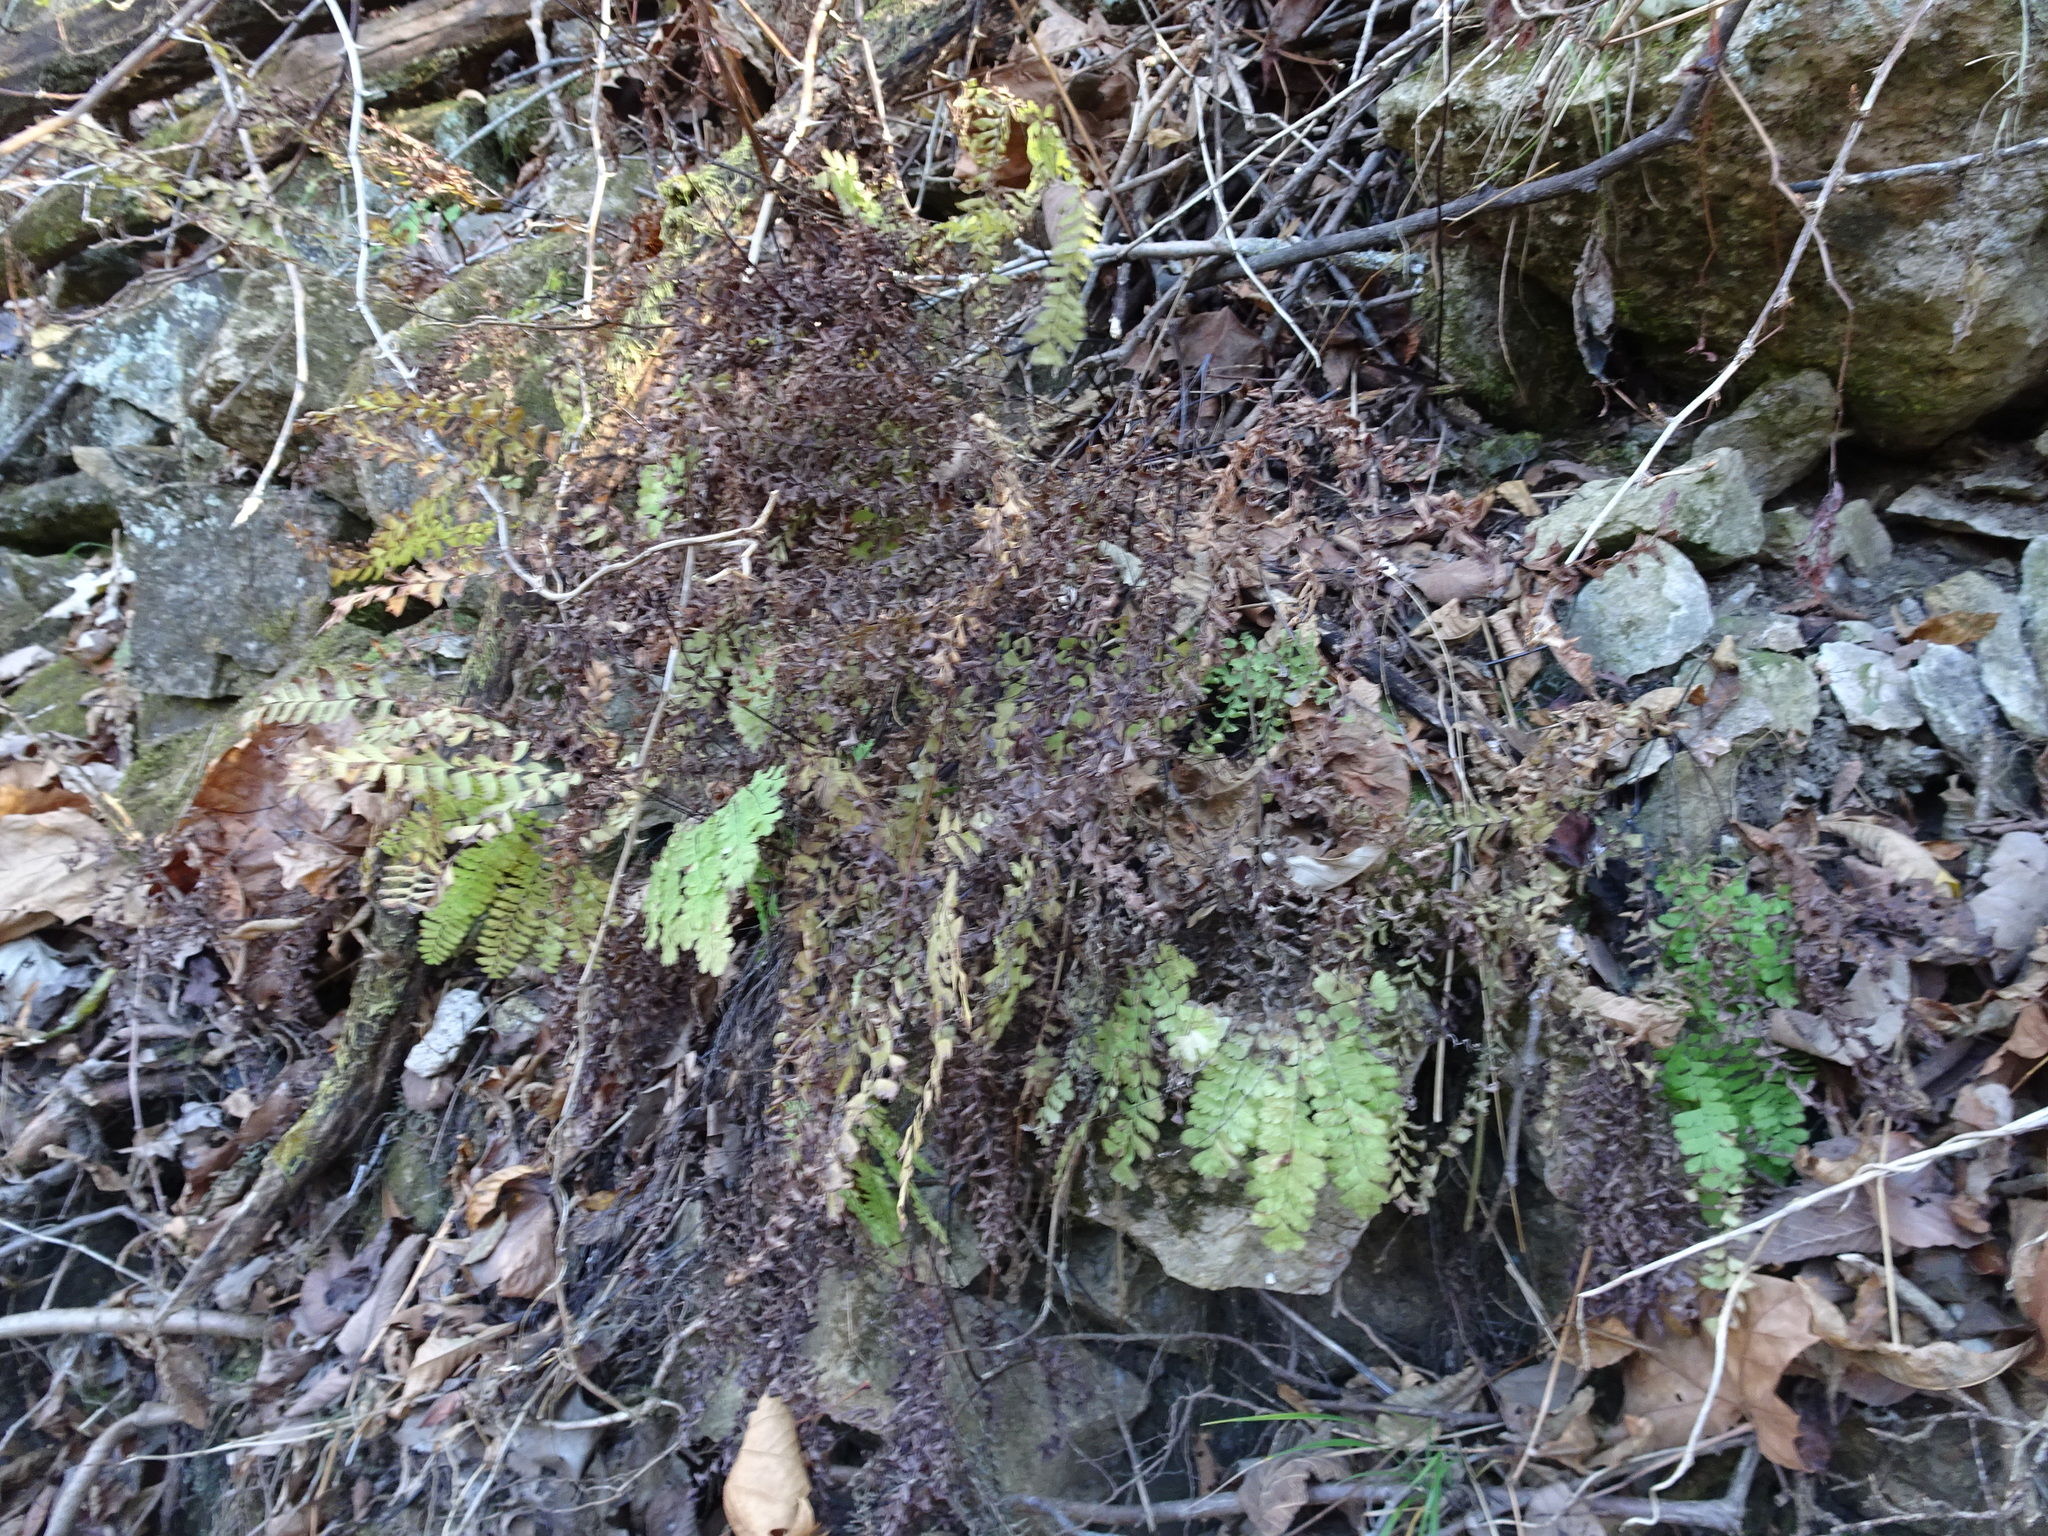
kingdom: Plantae
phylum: Tracheophyta
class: Polypodiopsida
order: Polypodiales
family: Pteridaceae
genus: Adiantum
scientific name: Adiantum pedatum
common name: Five-finger fern
